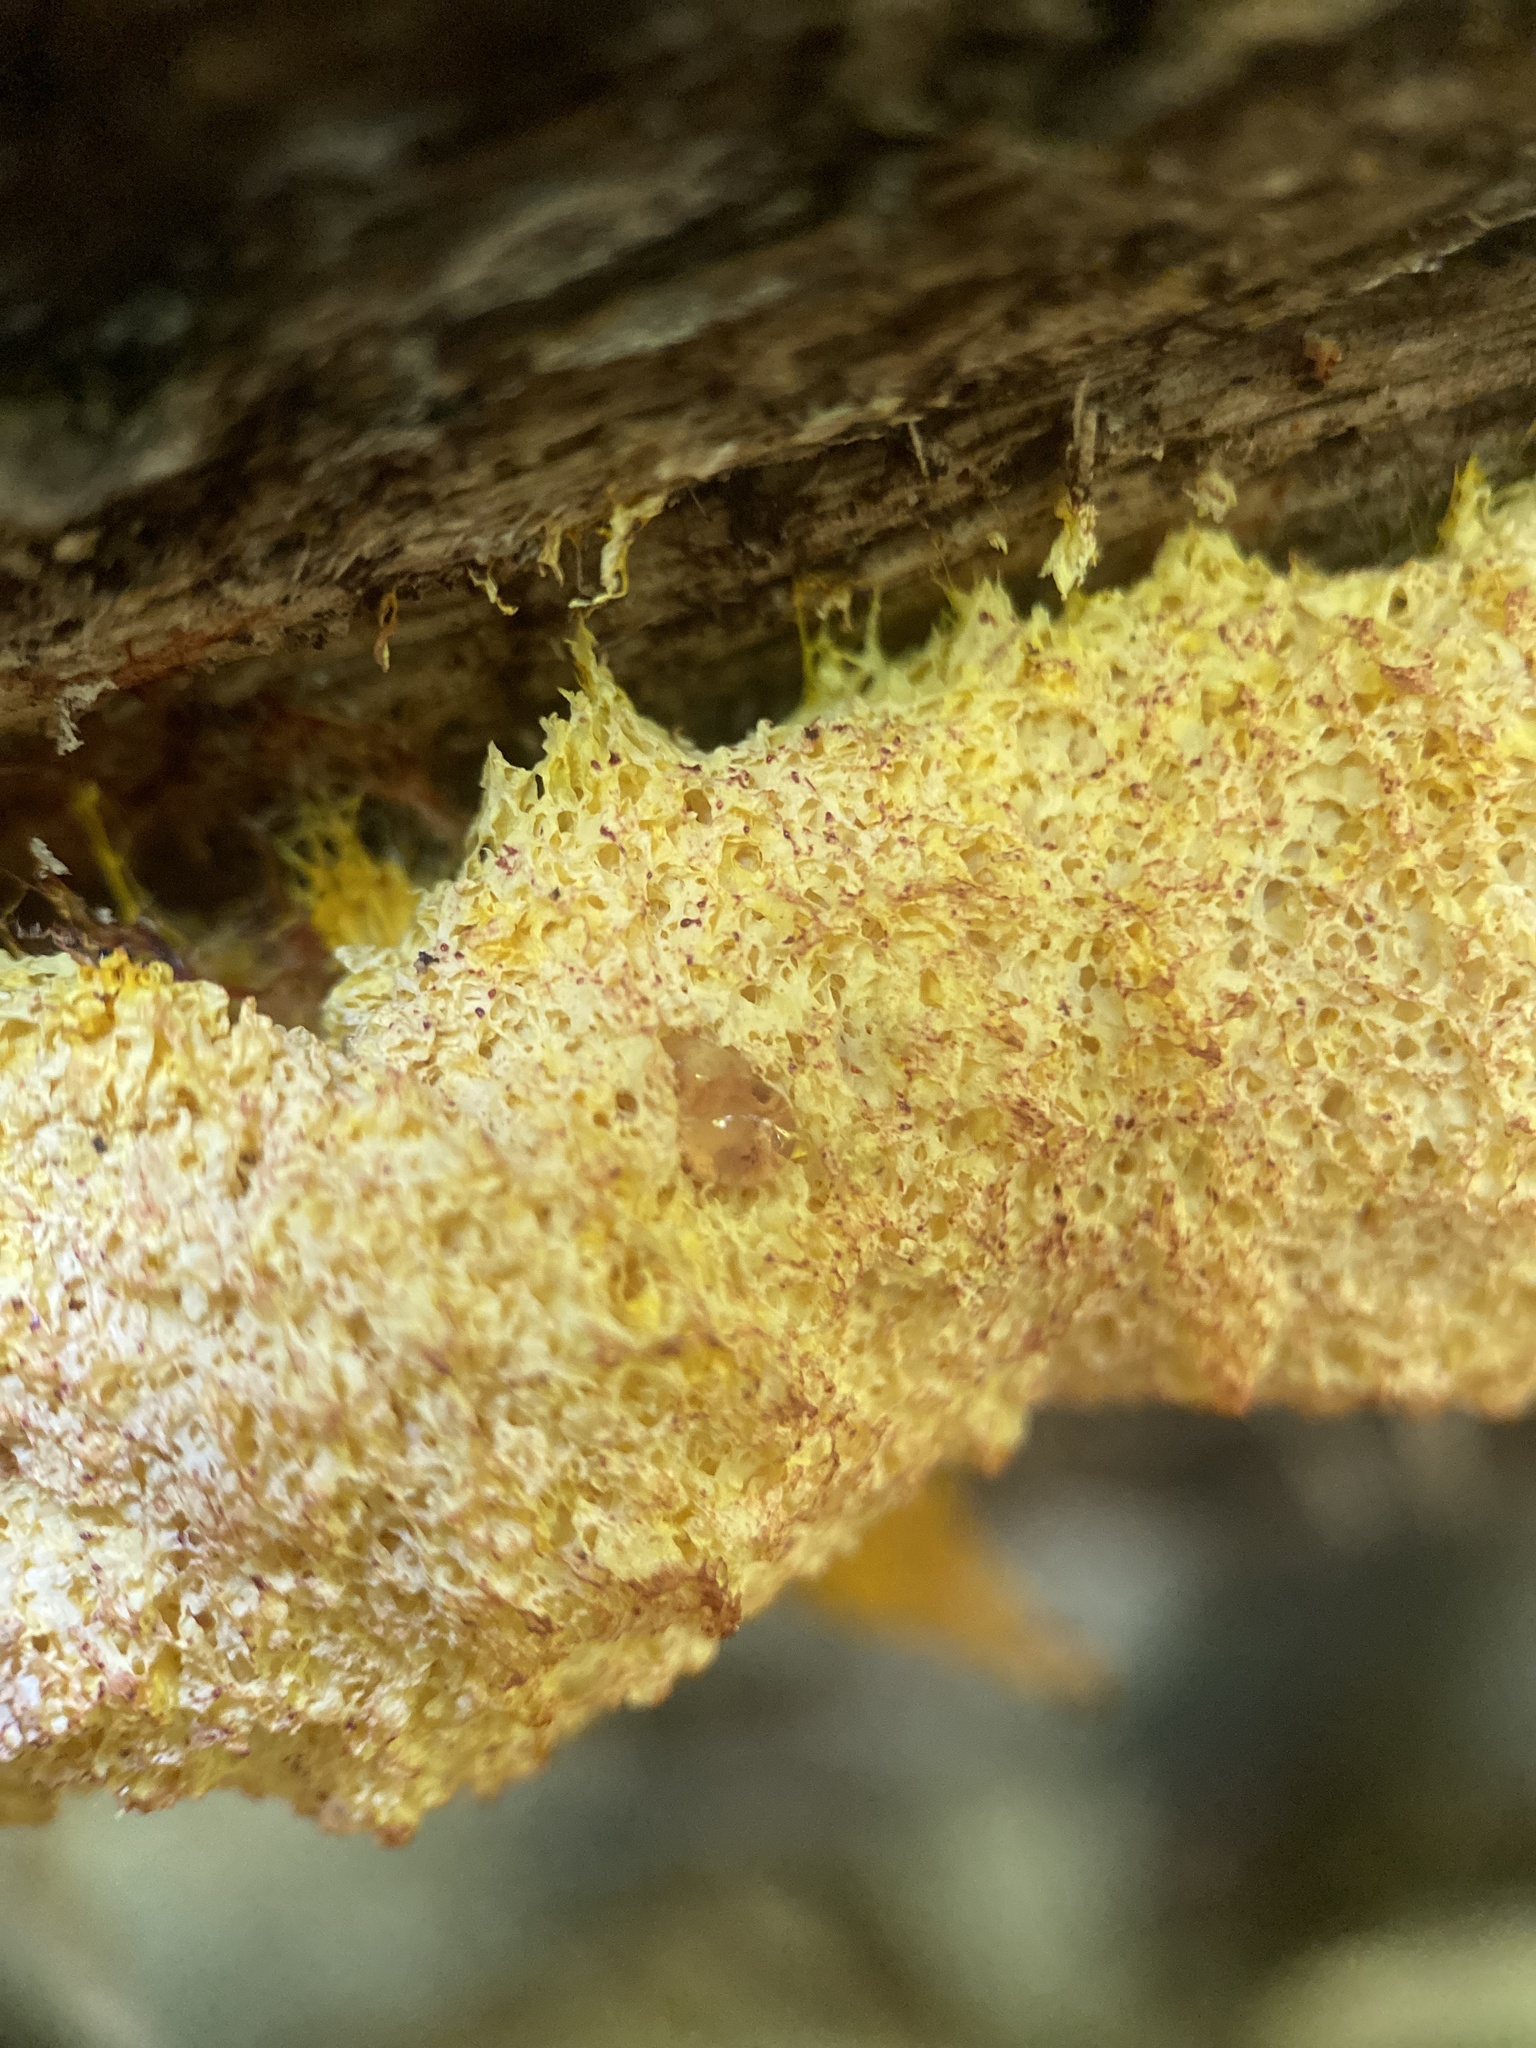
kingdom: Protozoa
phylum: Mycetozoa
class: Myxomycetes
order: Physarales
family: Physaraceae
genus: Fuligo
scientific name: Fuligo septica
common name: Dog vomit slime mold
